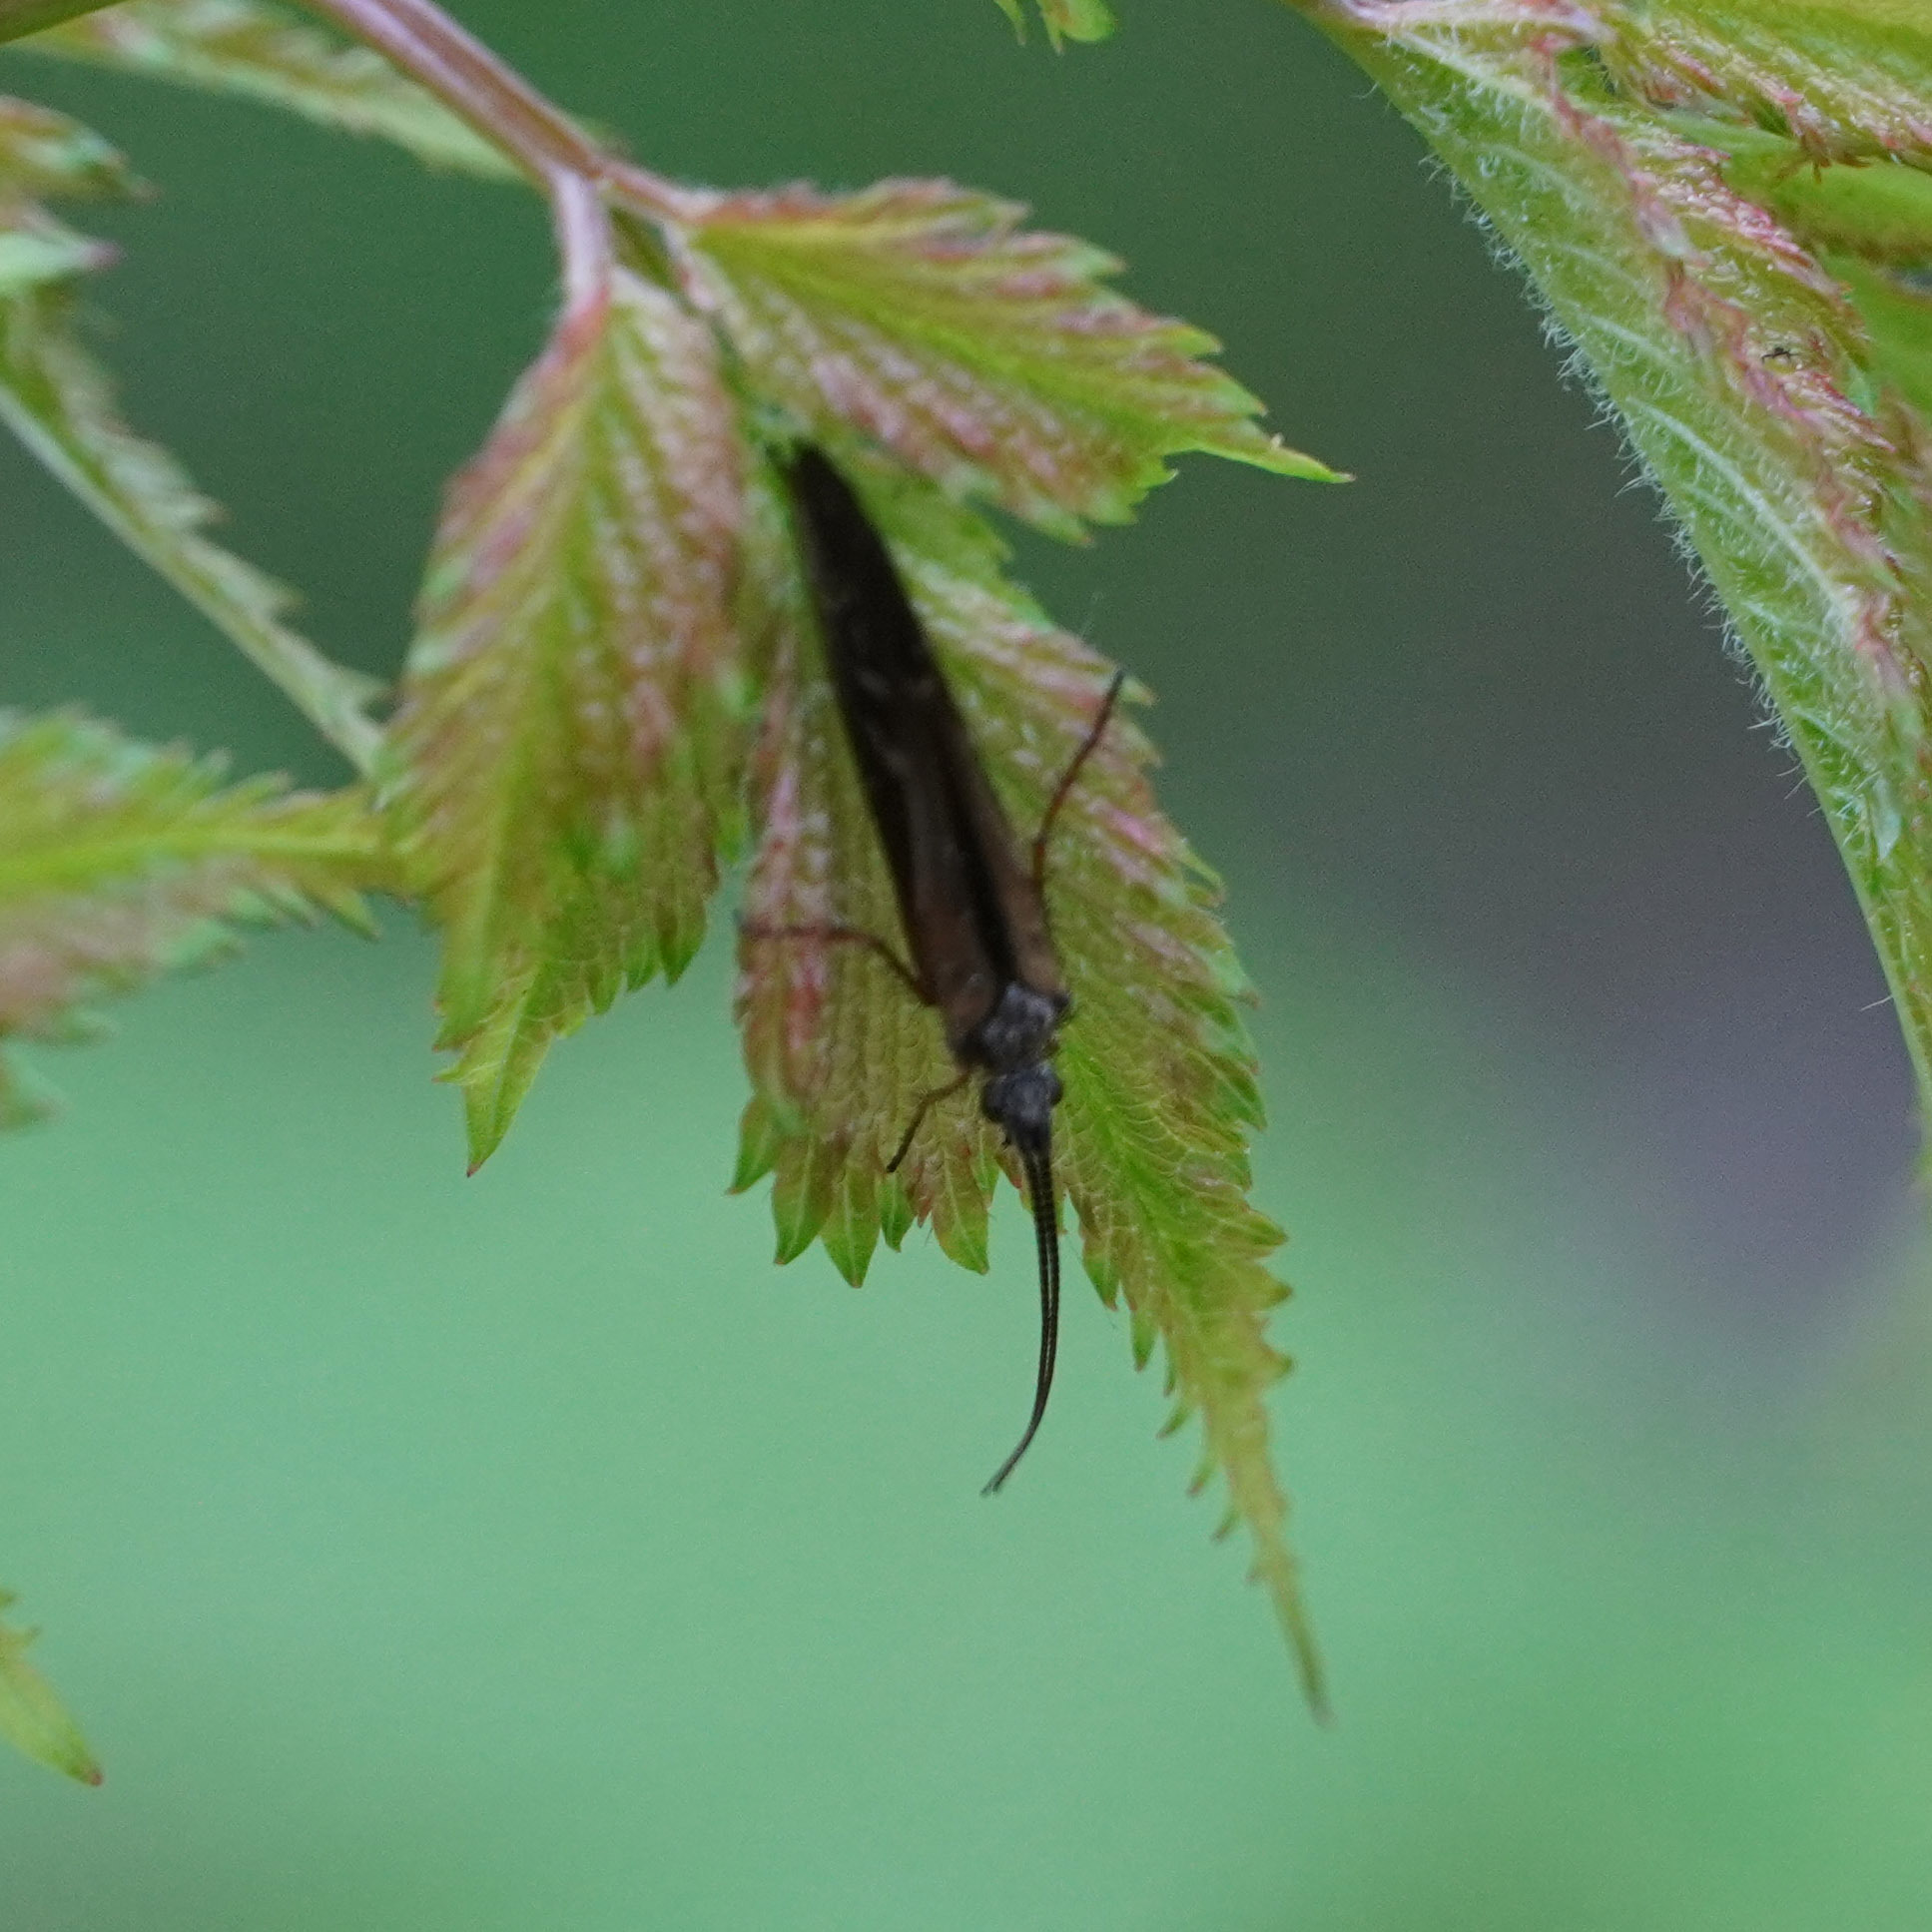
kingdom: Animalia
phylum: Arthropoda
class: Insecta
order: Trichoptera
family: Limnephilidae
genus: Limnephilus
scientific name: Limnephilus auricula
